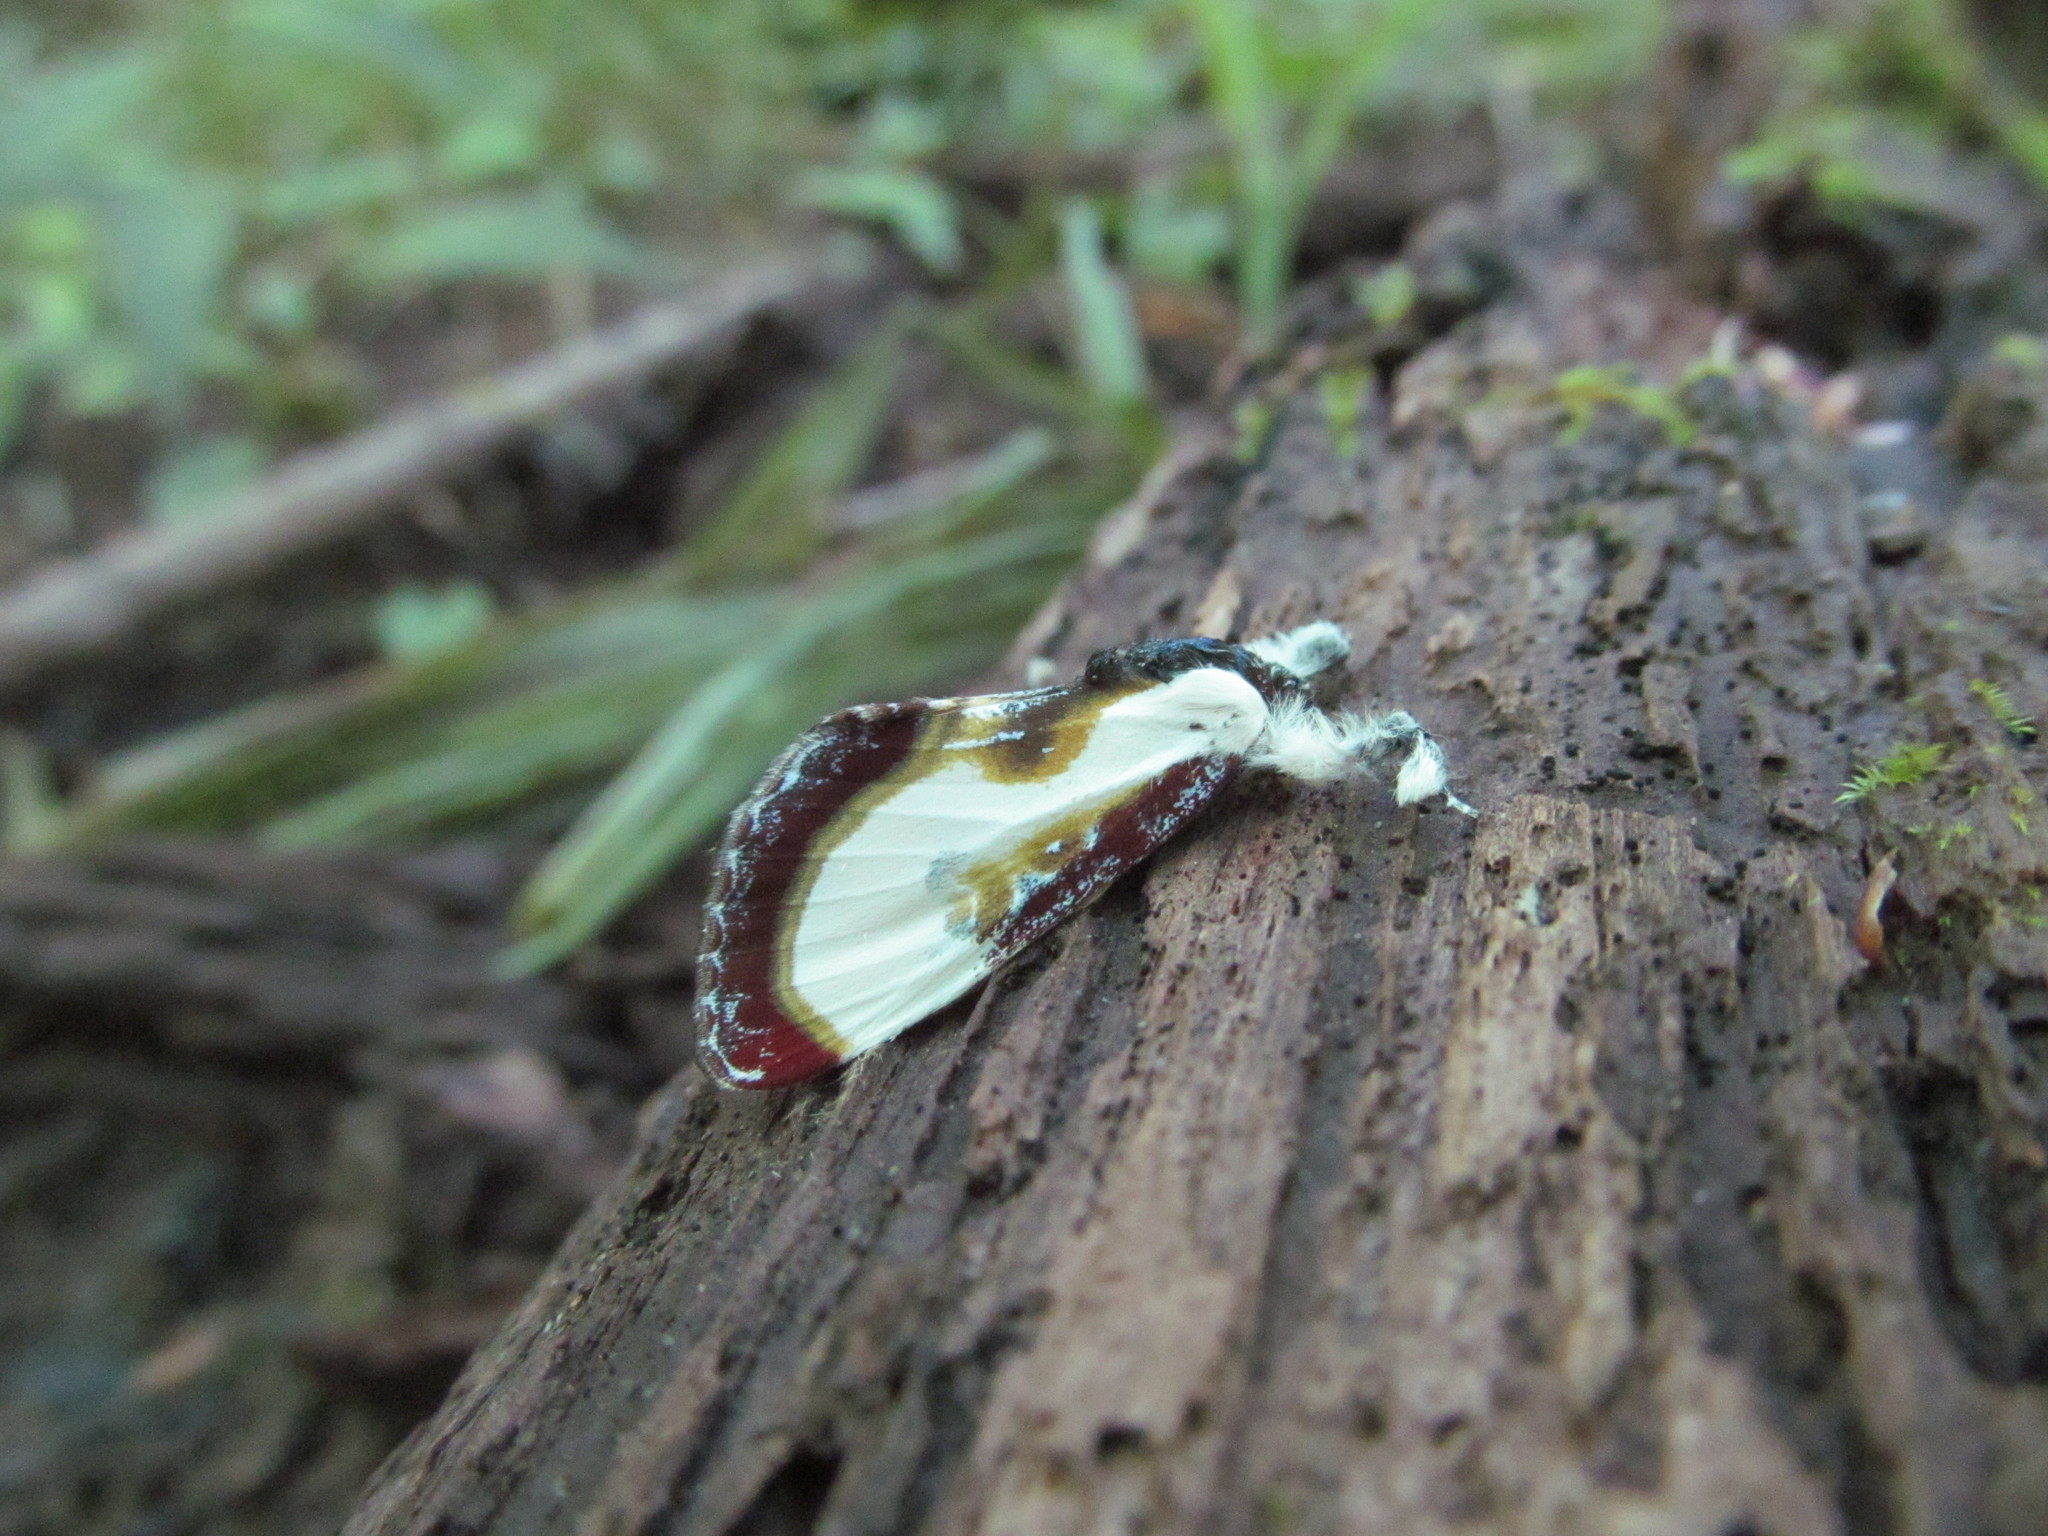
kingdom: Animalia
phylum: Arthropoda
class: Insecta
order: Lepidoptera
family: Noctuidae
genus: Eudryas
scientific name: Eudryas grata
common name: Beautiful wood-nymph
